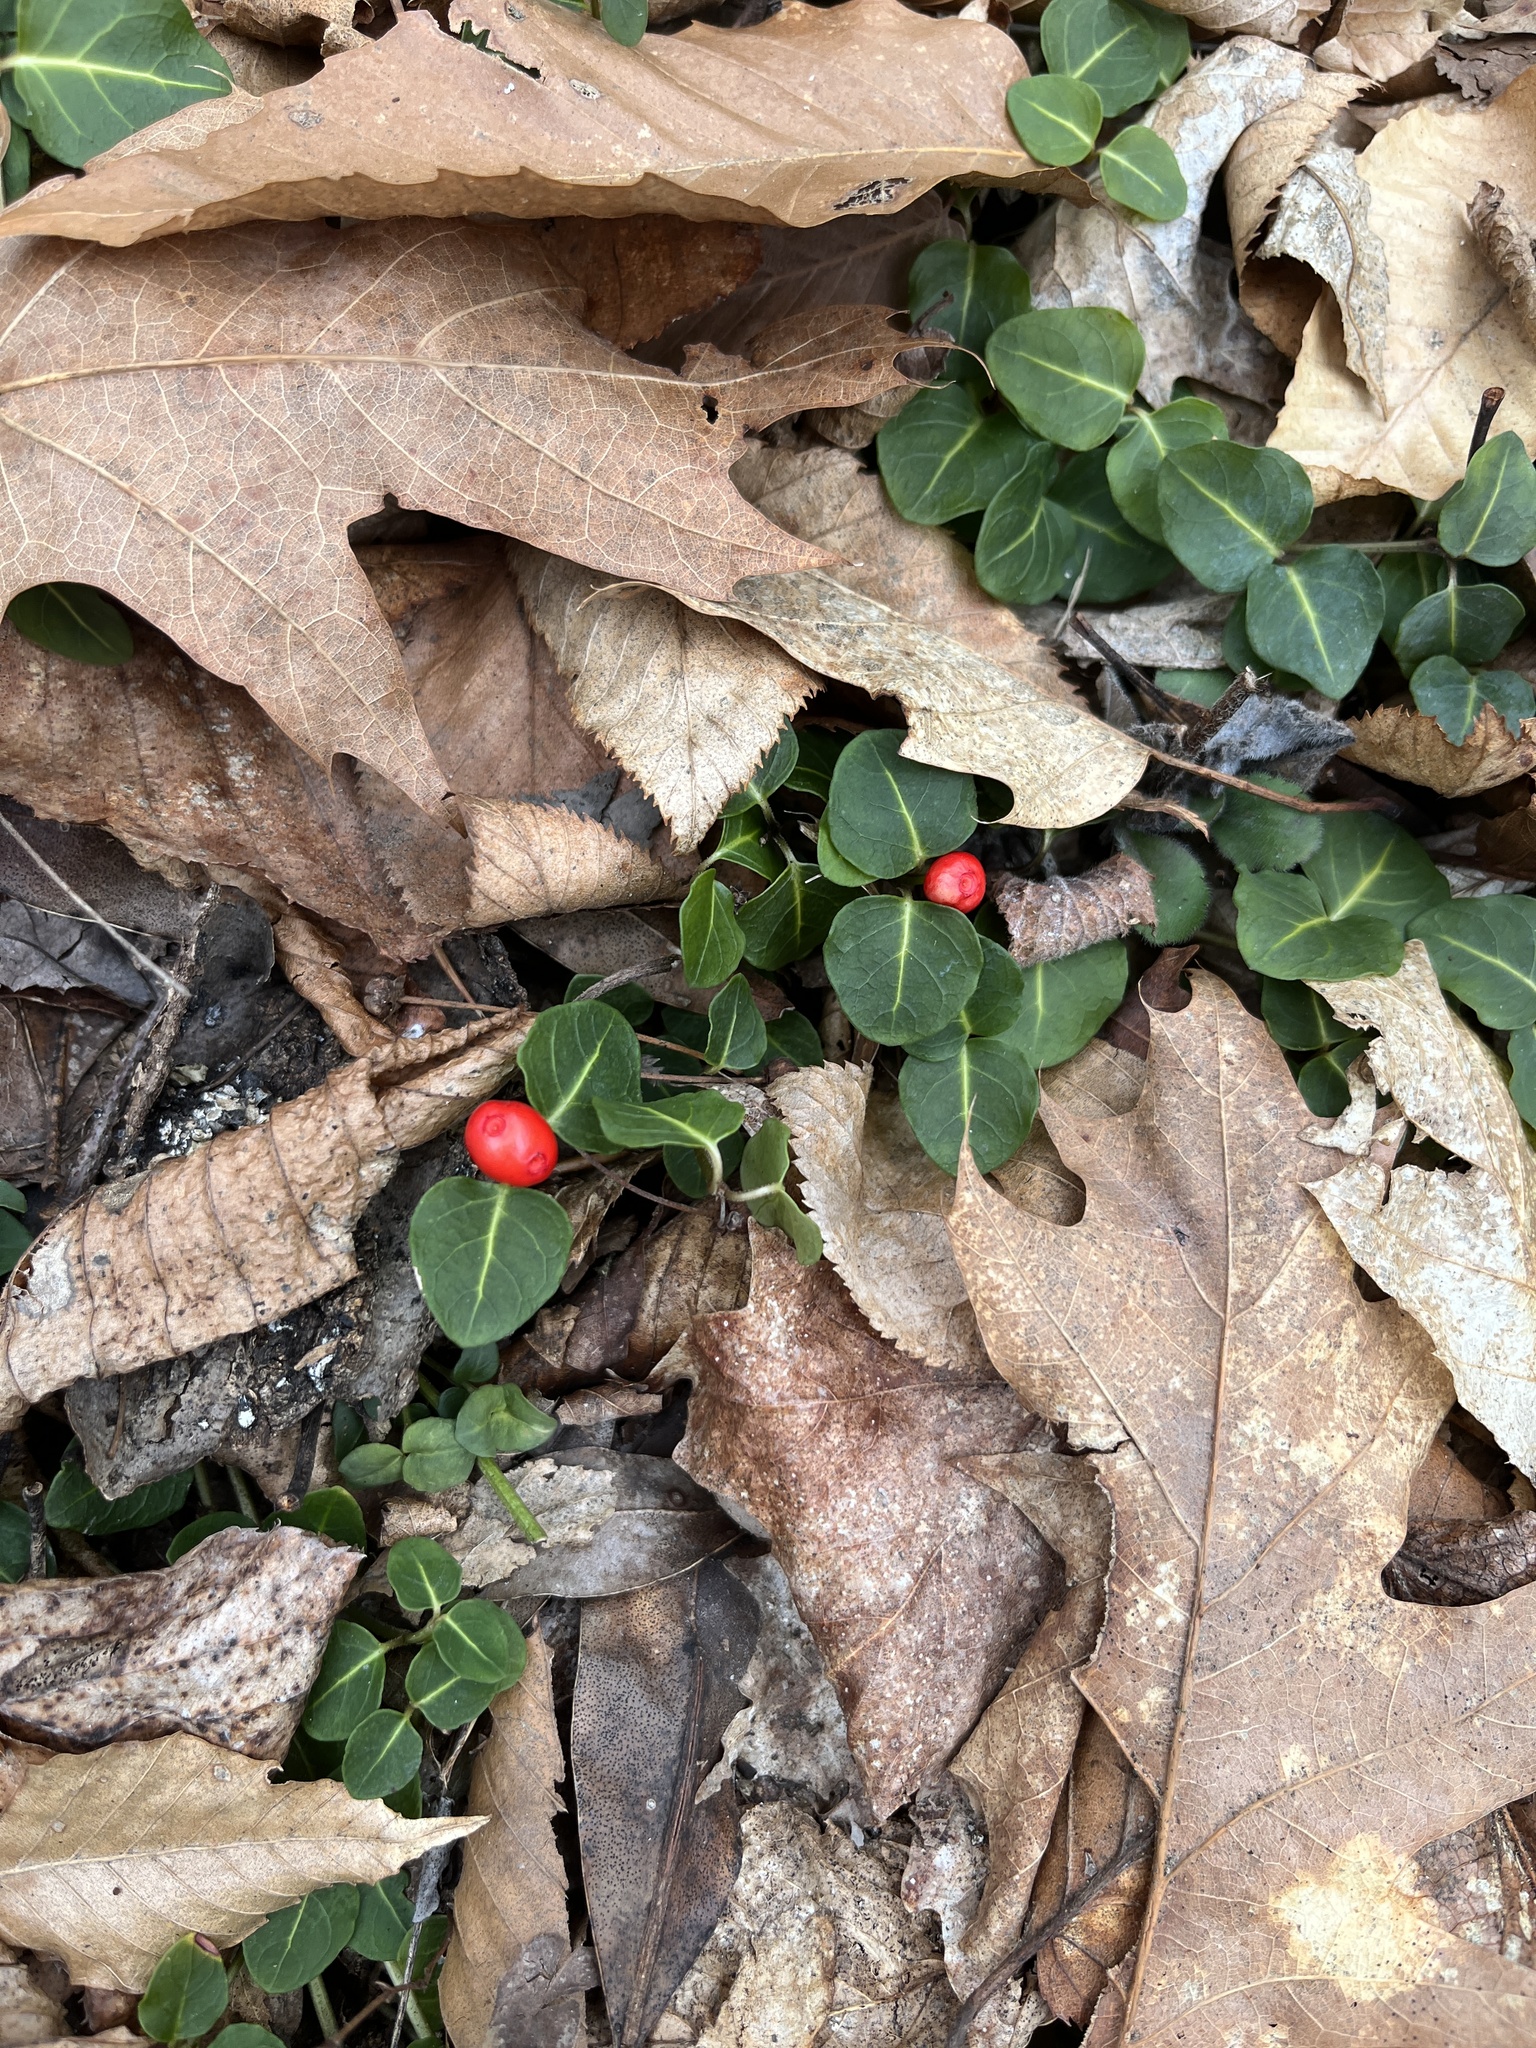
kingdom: Plantae
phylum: Tracheophyta
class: Magnoliopsida
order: Gentianales
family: Rubiaceae
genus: Mitchella
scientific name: Mitchella repens
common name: Partridge-berry
